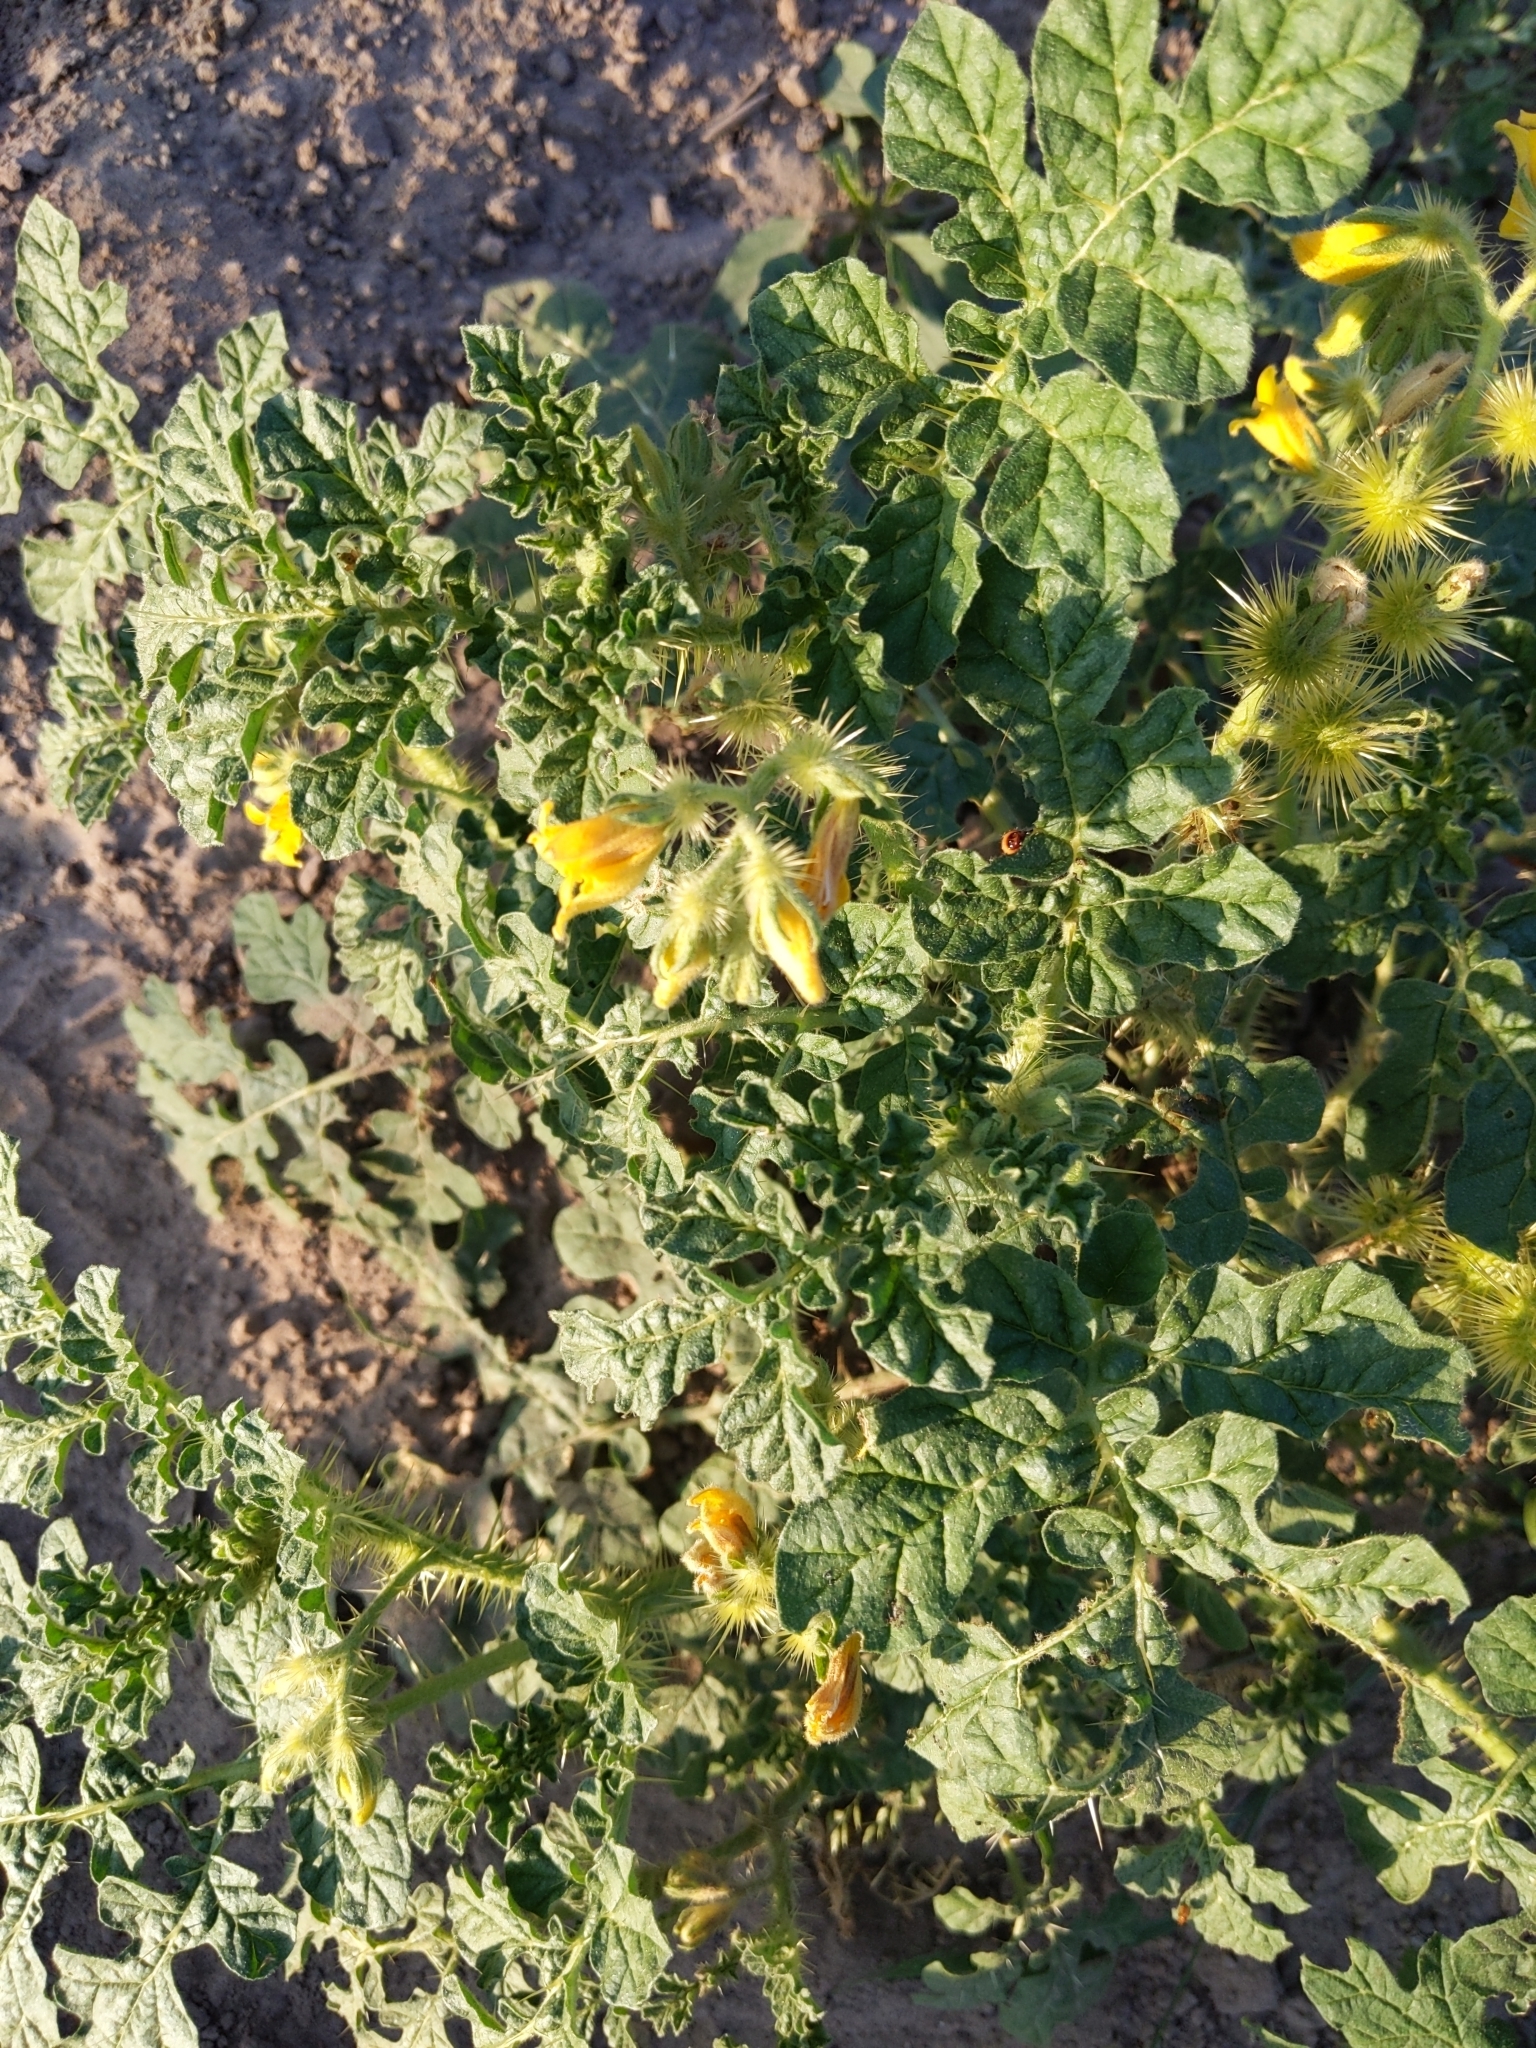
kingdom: Plantae
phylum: Tracheophyta
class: Magnoliopsida
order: Solanales
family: Solanaceae
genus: Solanum
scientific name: Solanum angustifolium
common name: Buffalobur nightshade
